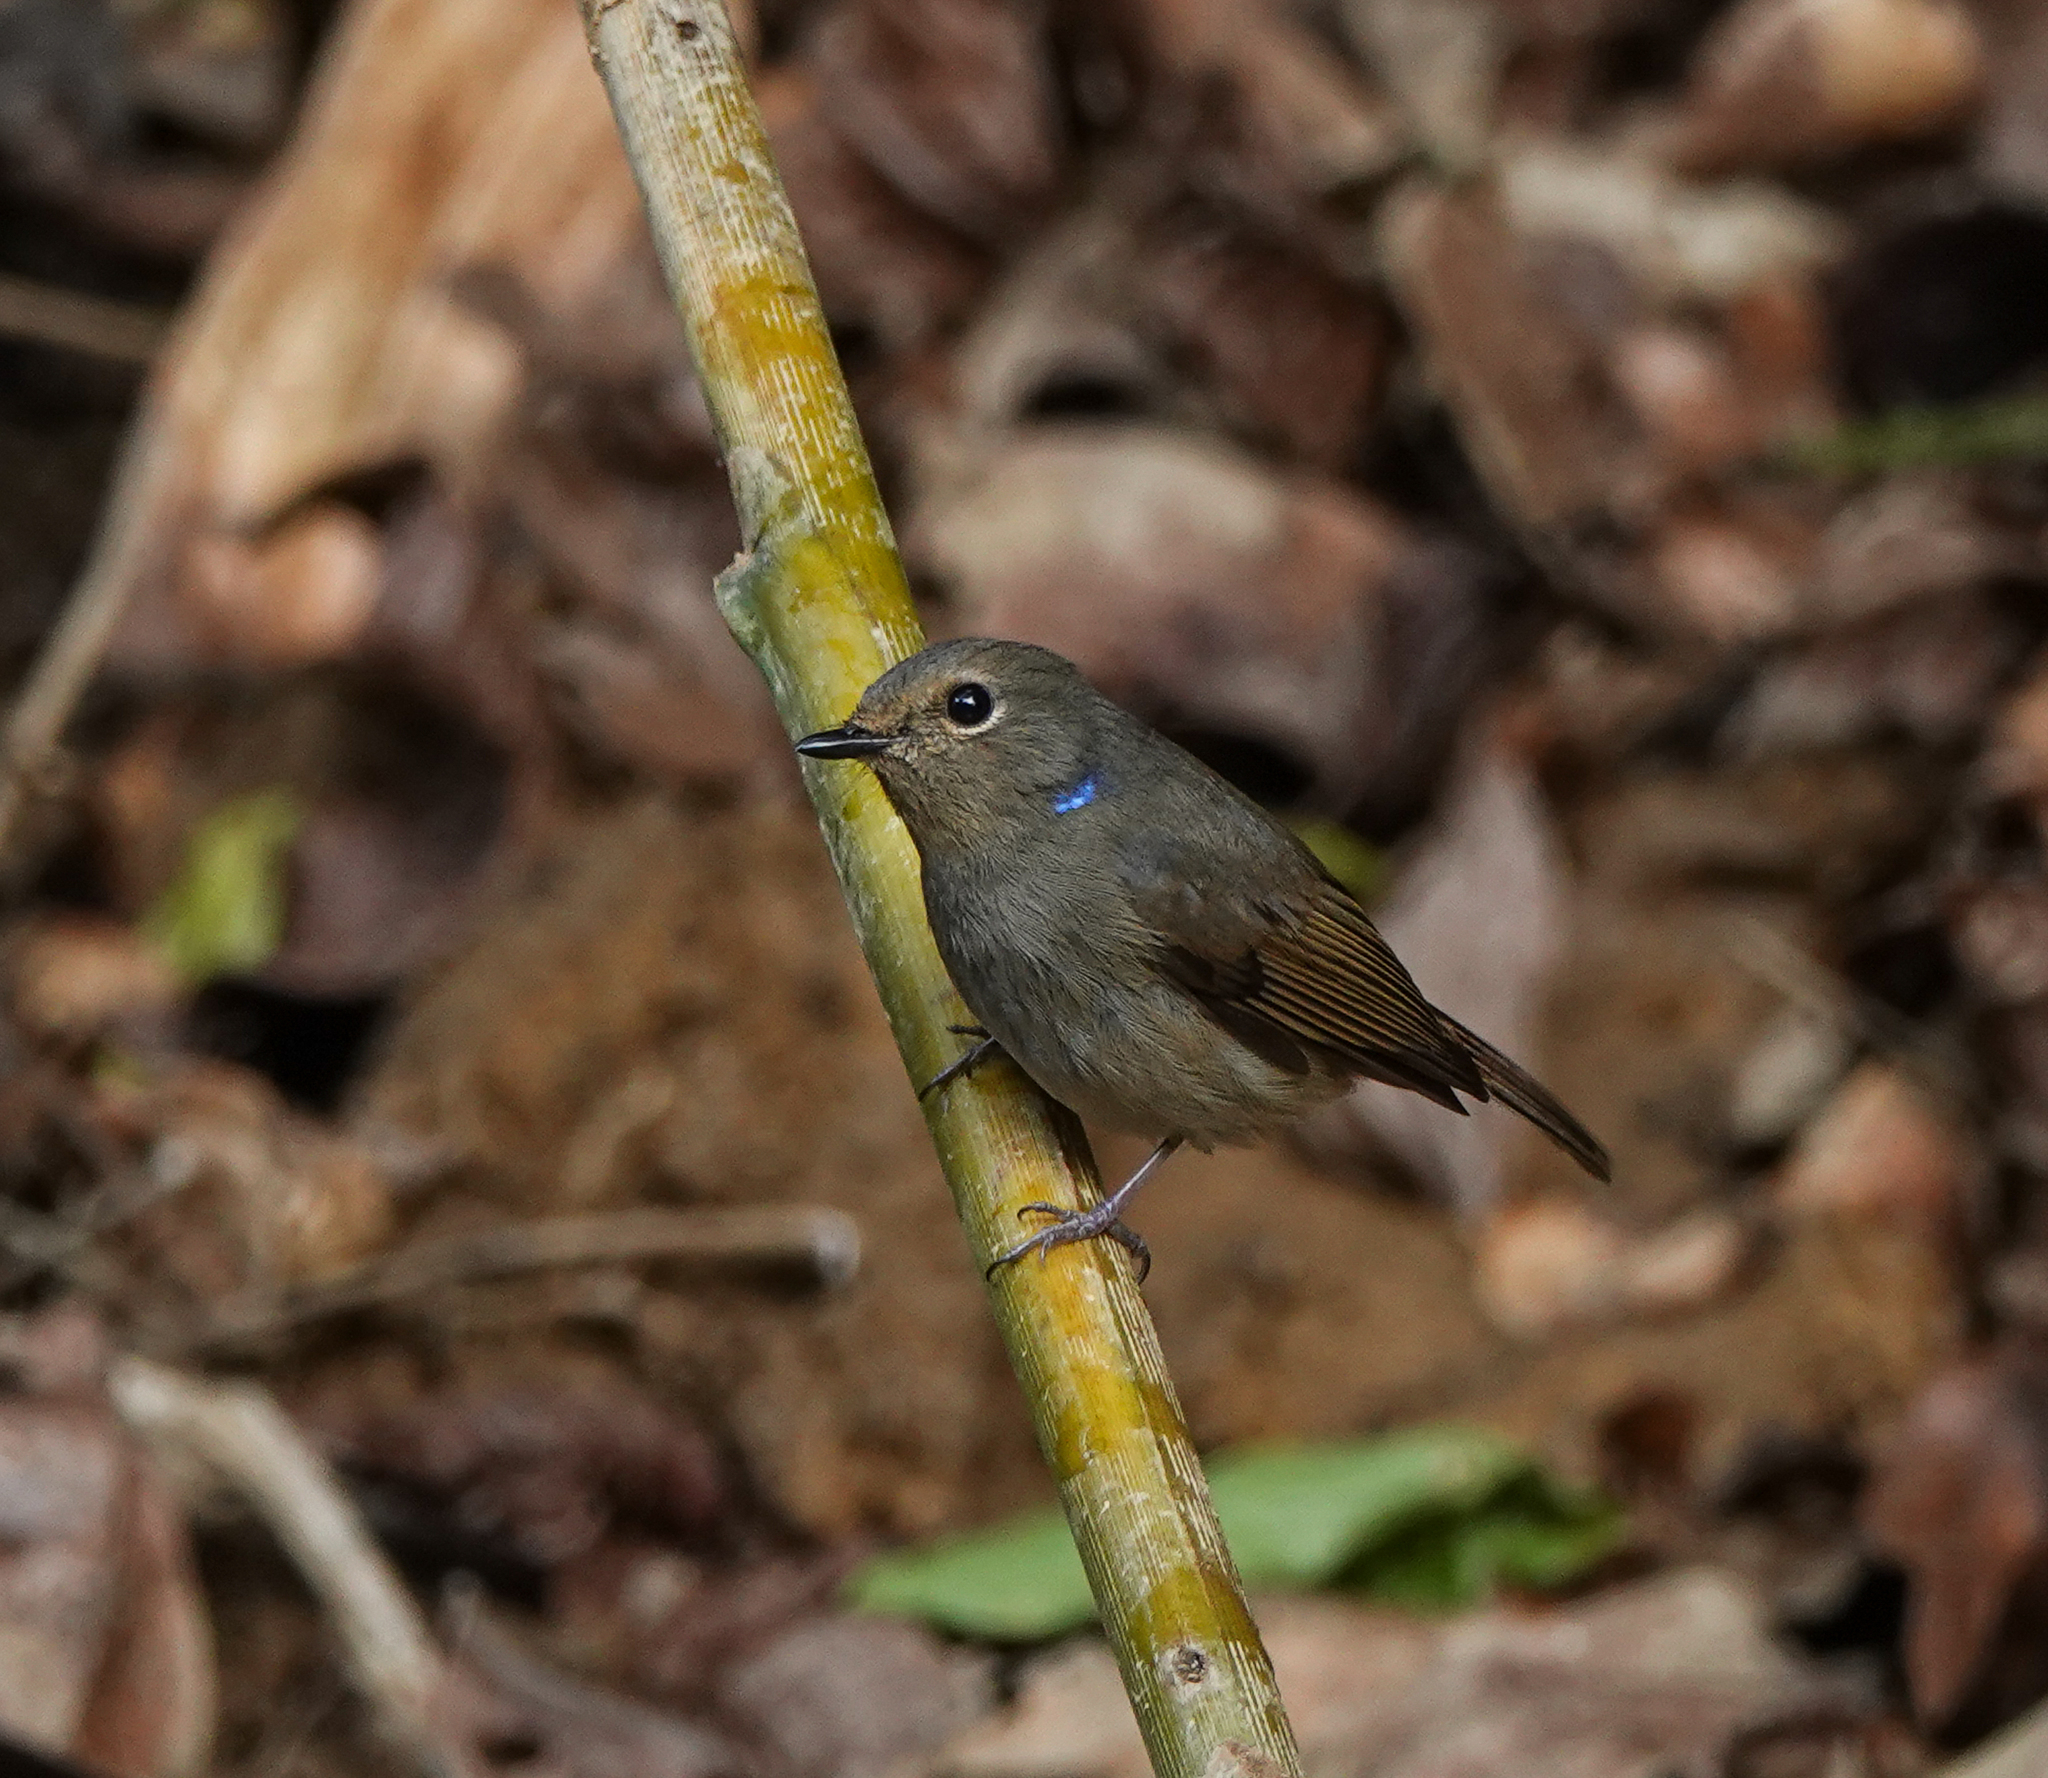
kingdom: Animalia
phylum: Chordata
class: Aves
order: Passeriformes
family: Muscicapidae
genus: Niltava
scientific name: Niltava macgrigoriae
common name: Small niltava
